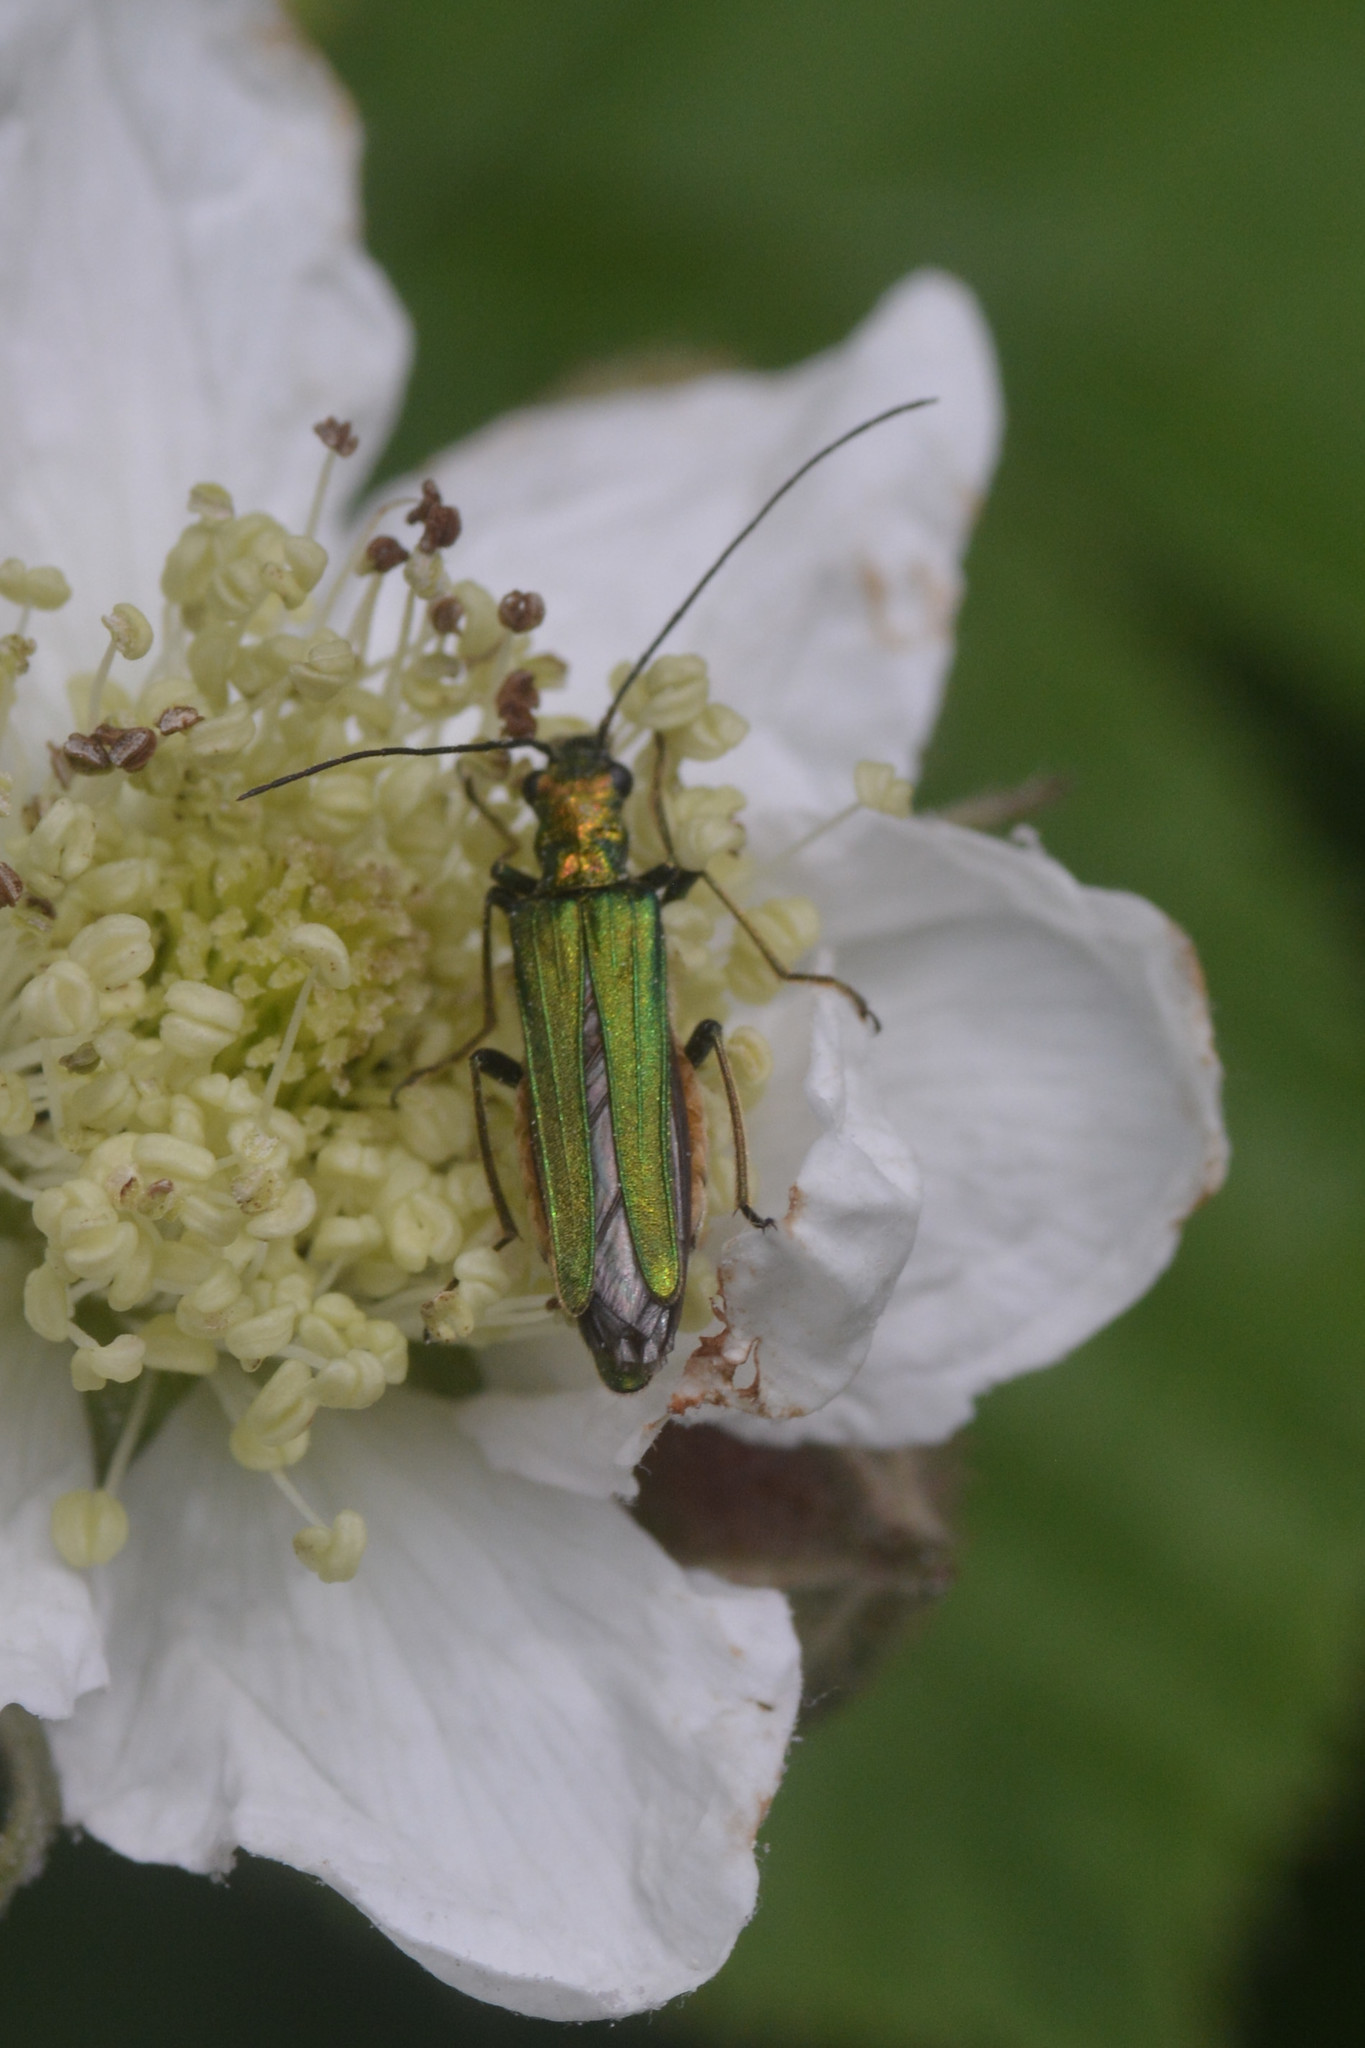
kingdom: Animalia
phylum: Arthropoda
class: Insecta
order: Coleoptera
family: Oedemeridae
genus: Oedemera
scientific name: Oedemera nobilis
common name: Swollen-thighed beetle
